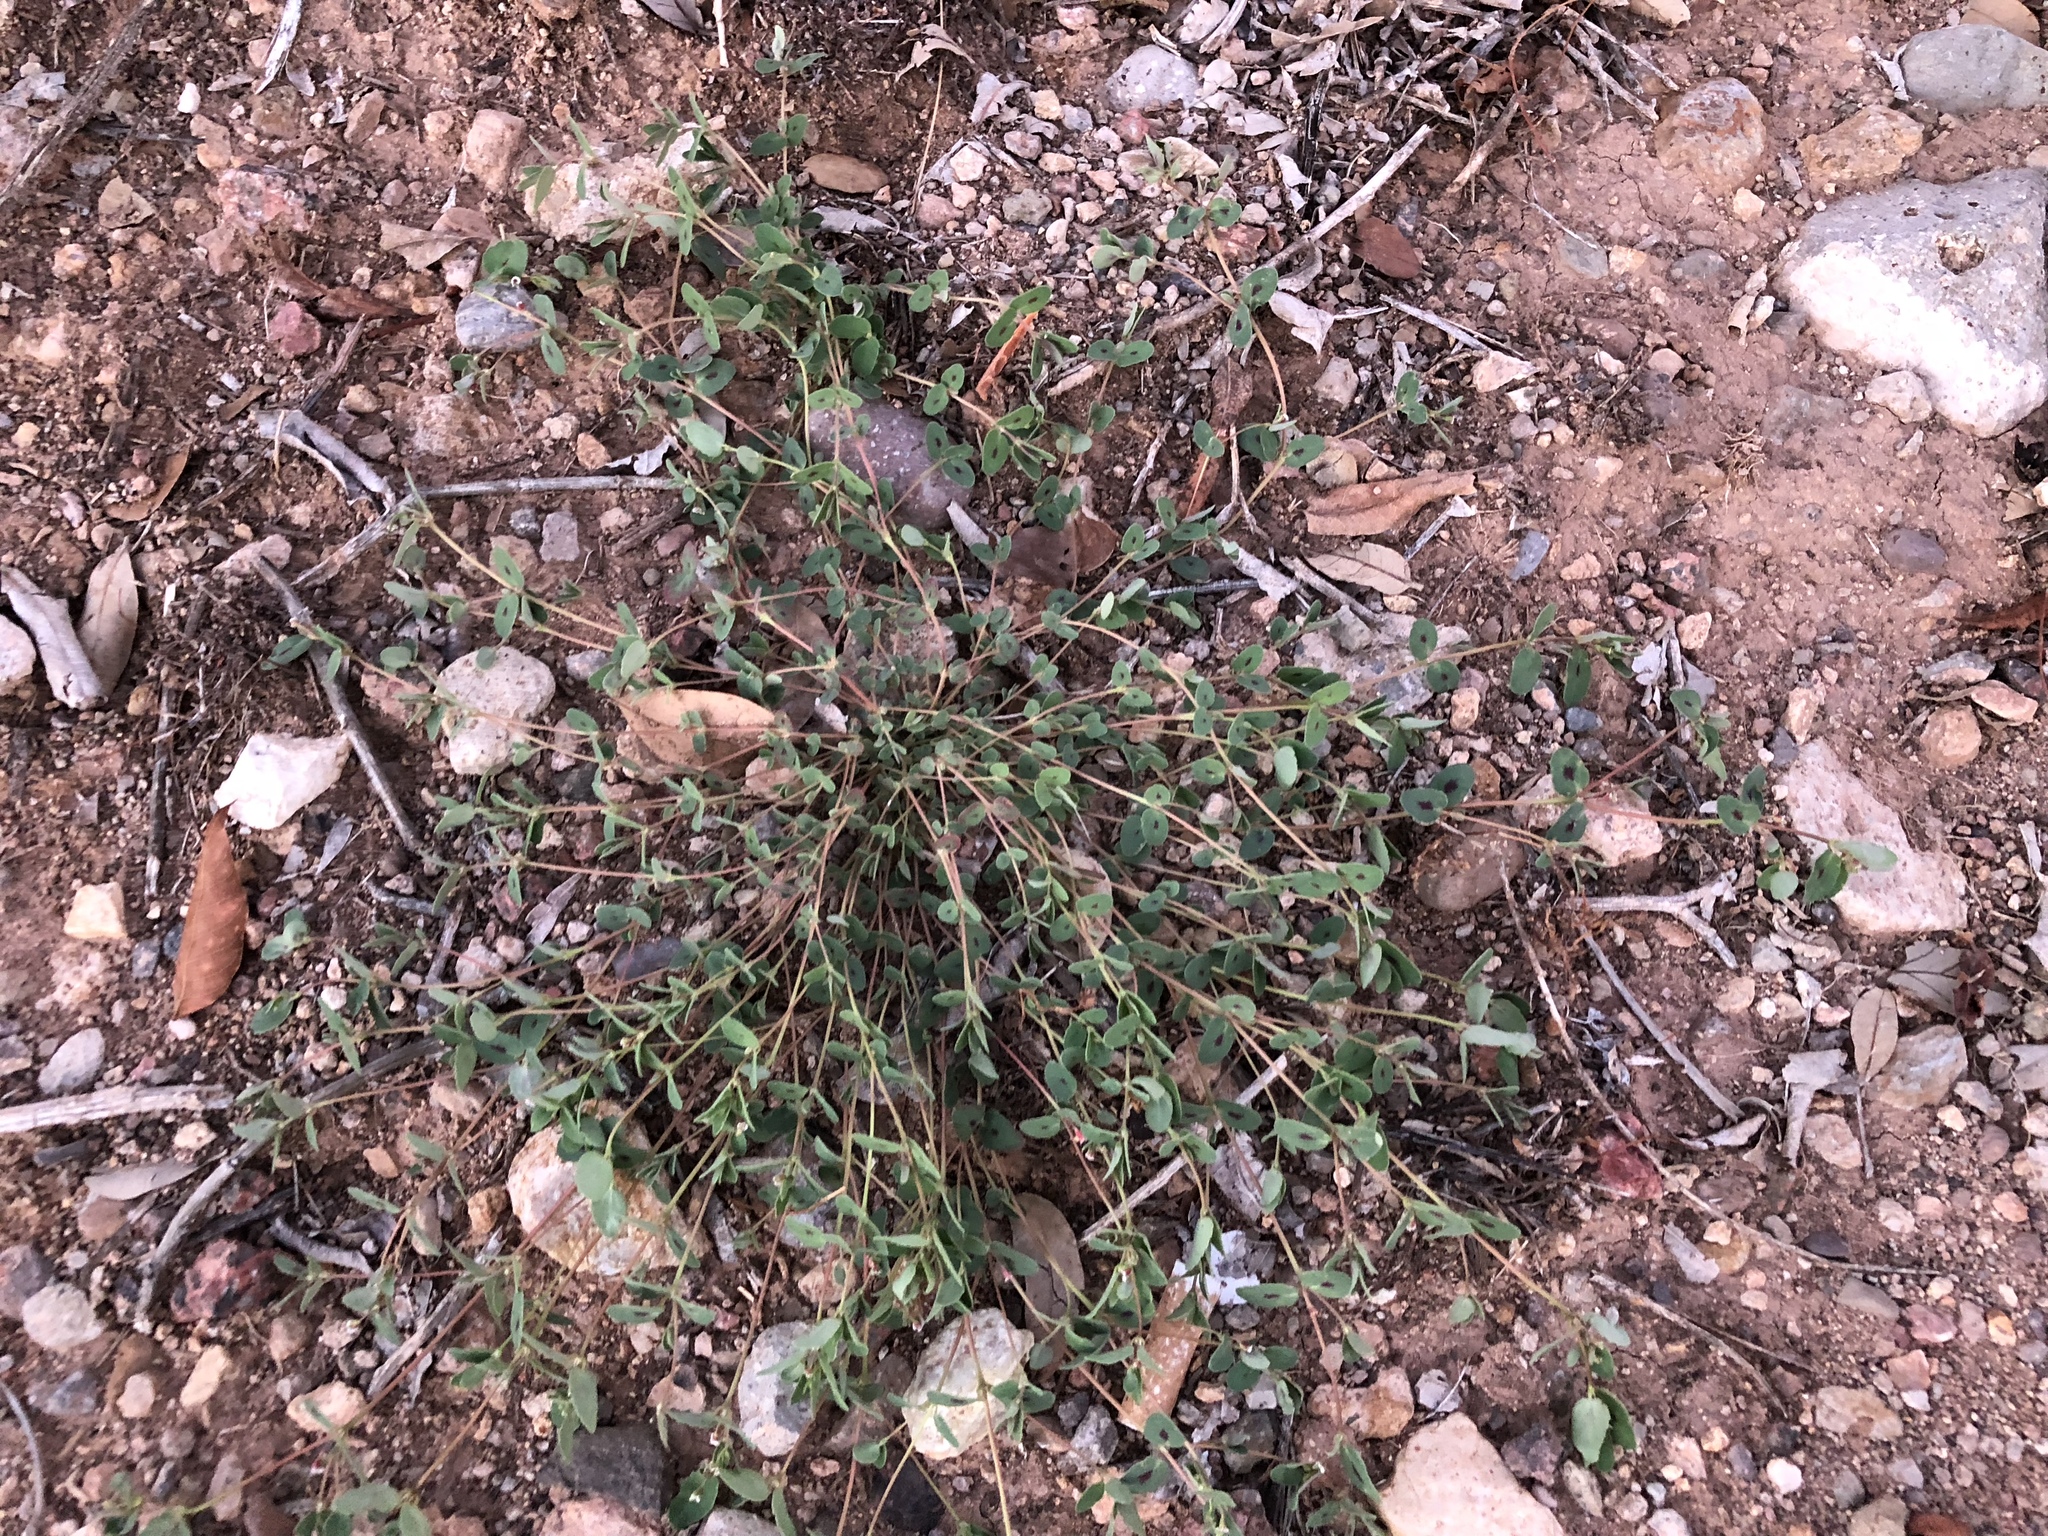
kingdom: Plantae
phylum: Tracheophyta
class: Magnoliopsida
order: Malpighiales
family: Euphorbiaceae
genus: Euphorbia
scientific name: Euphorbia capitellata
